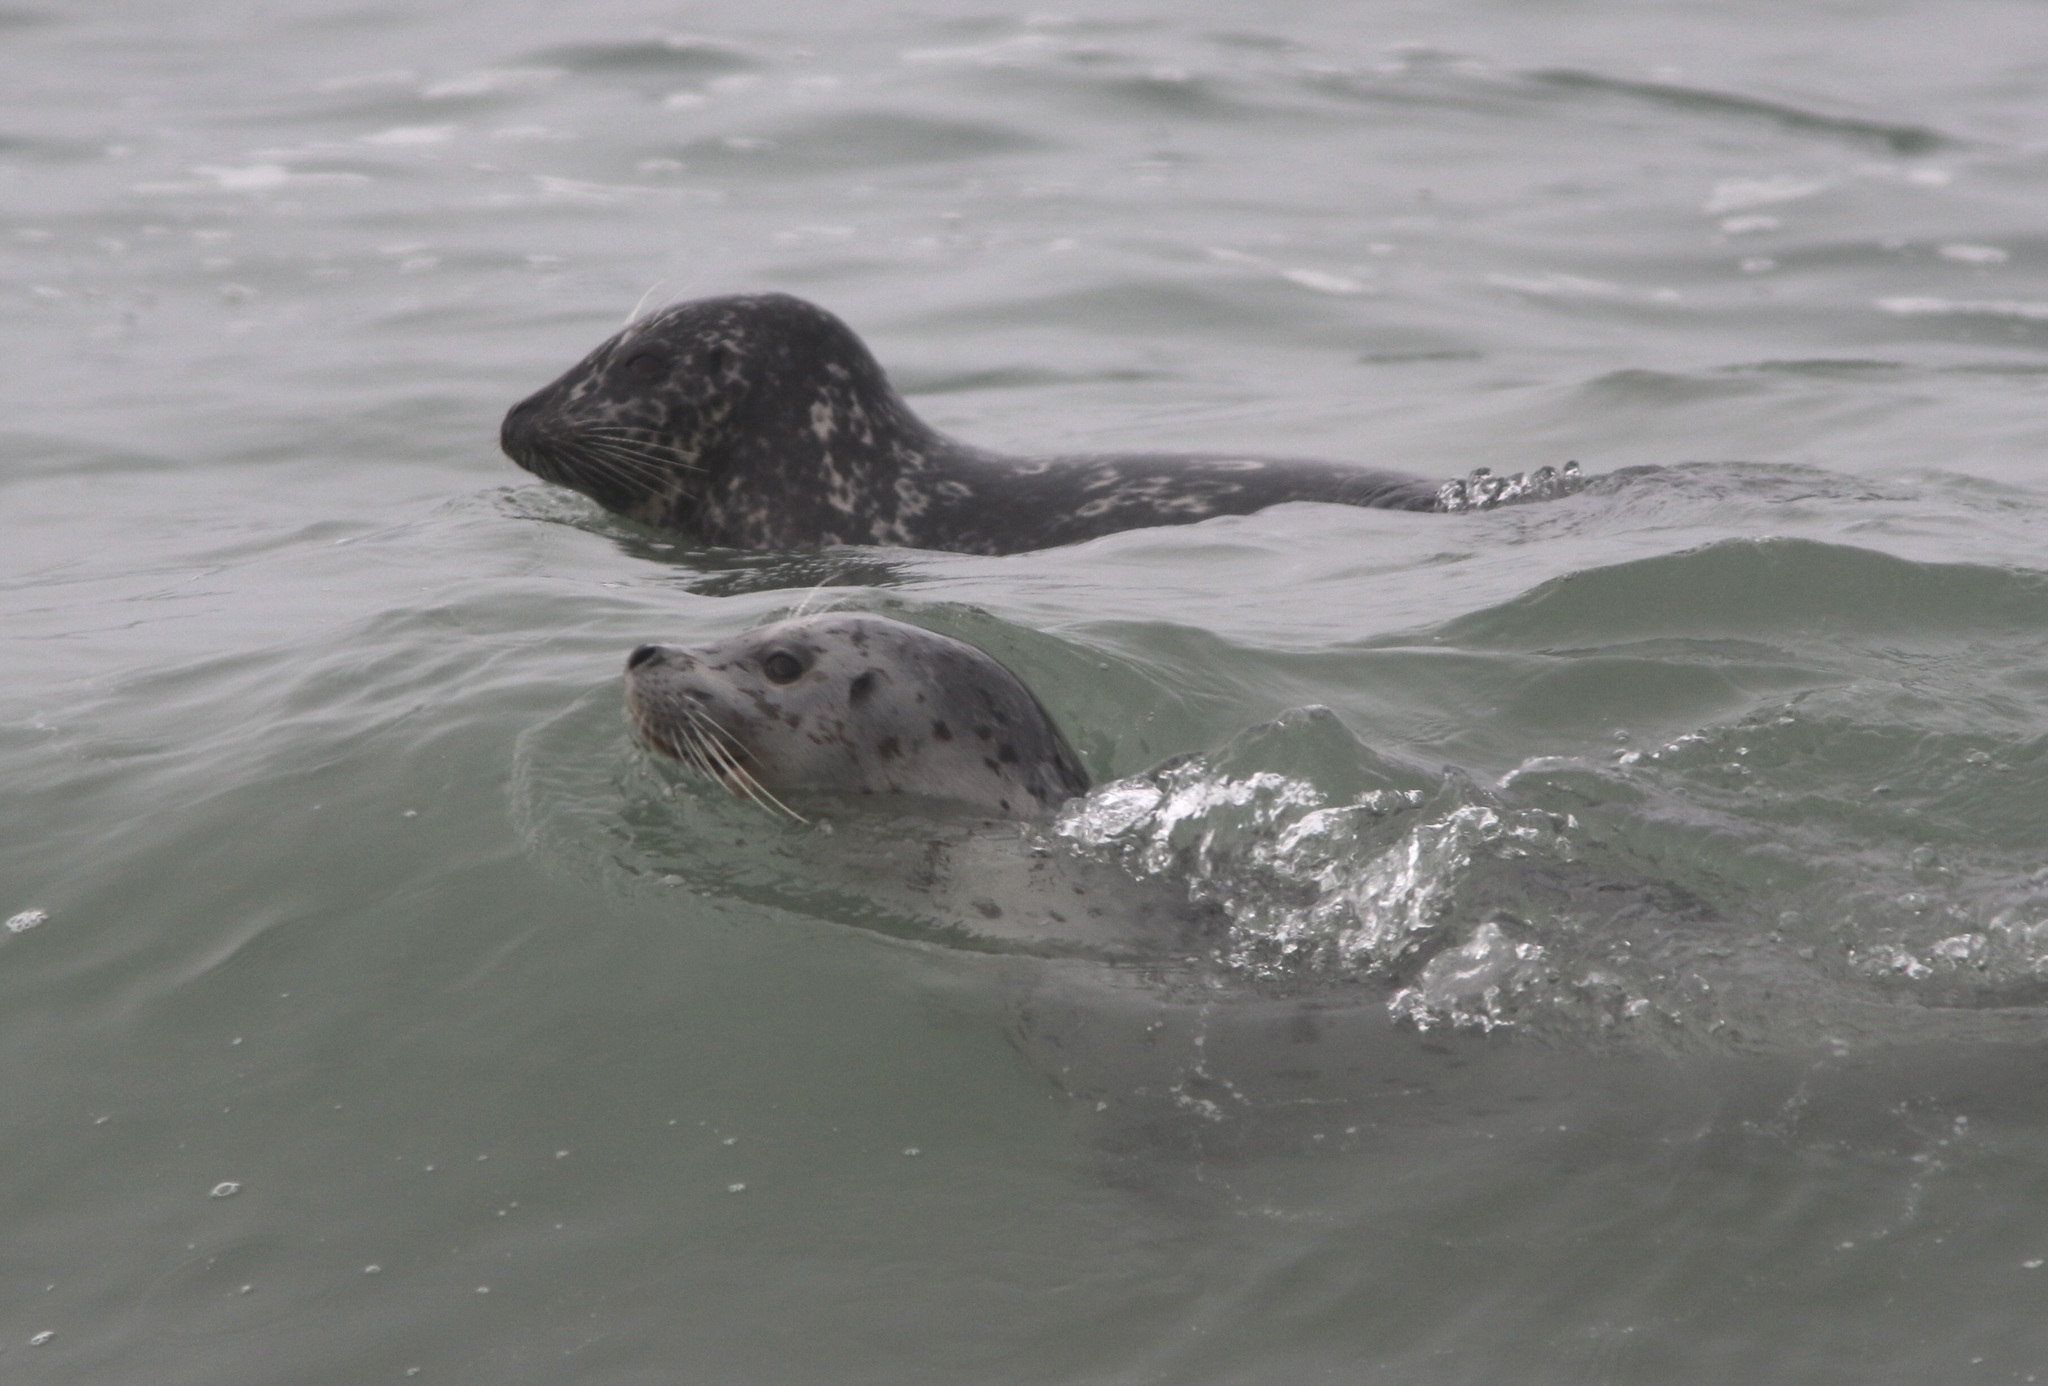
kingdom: Animalia
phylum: Chordata
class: Mammalia
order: Carnivora
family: Phocidae
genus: Phoca
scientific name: Phoca vitulina
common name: Harbor seal
